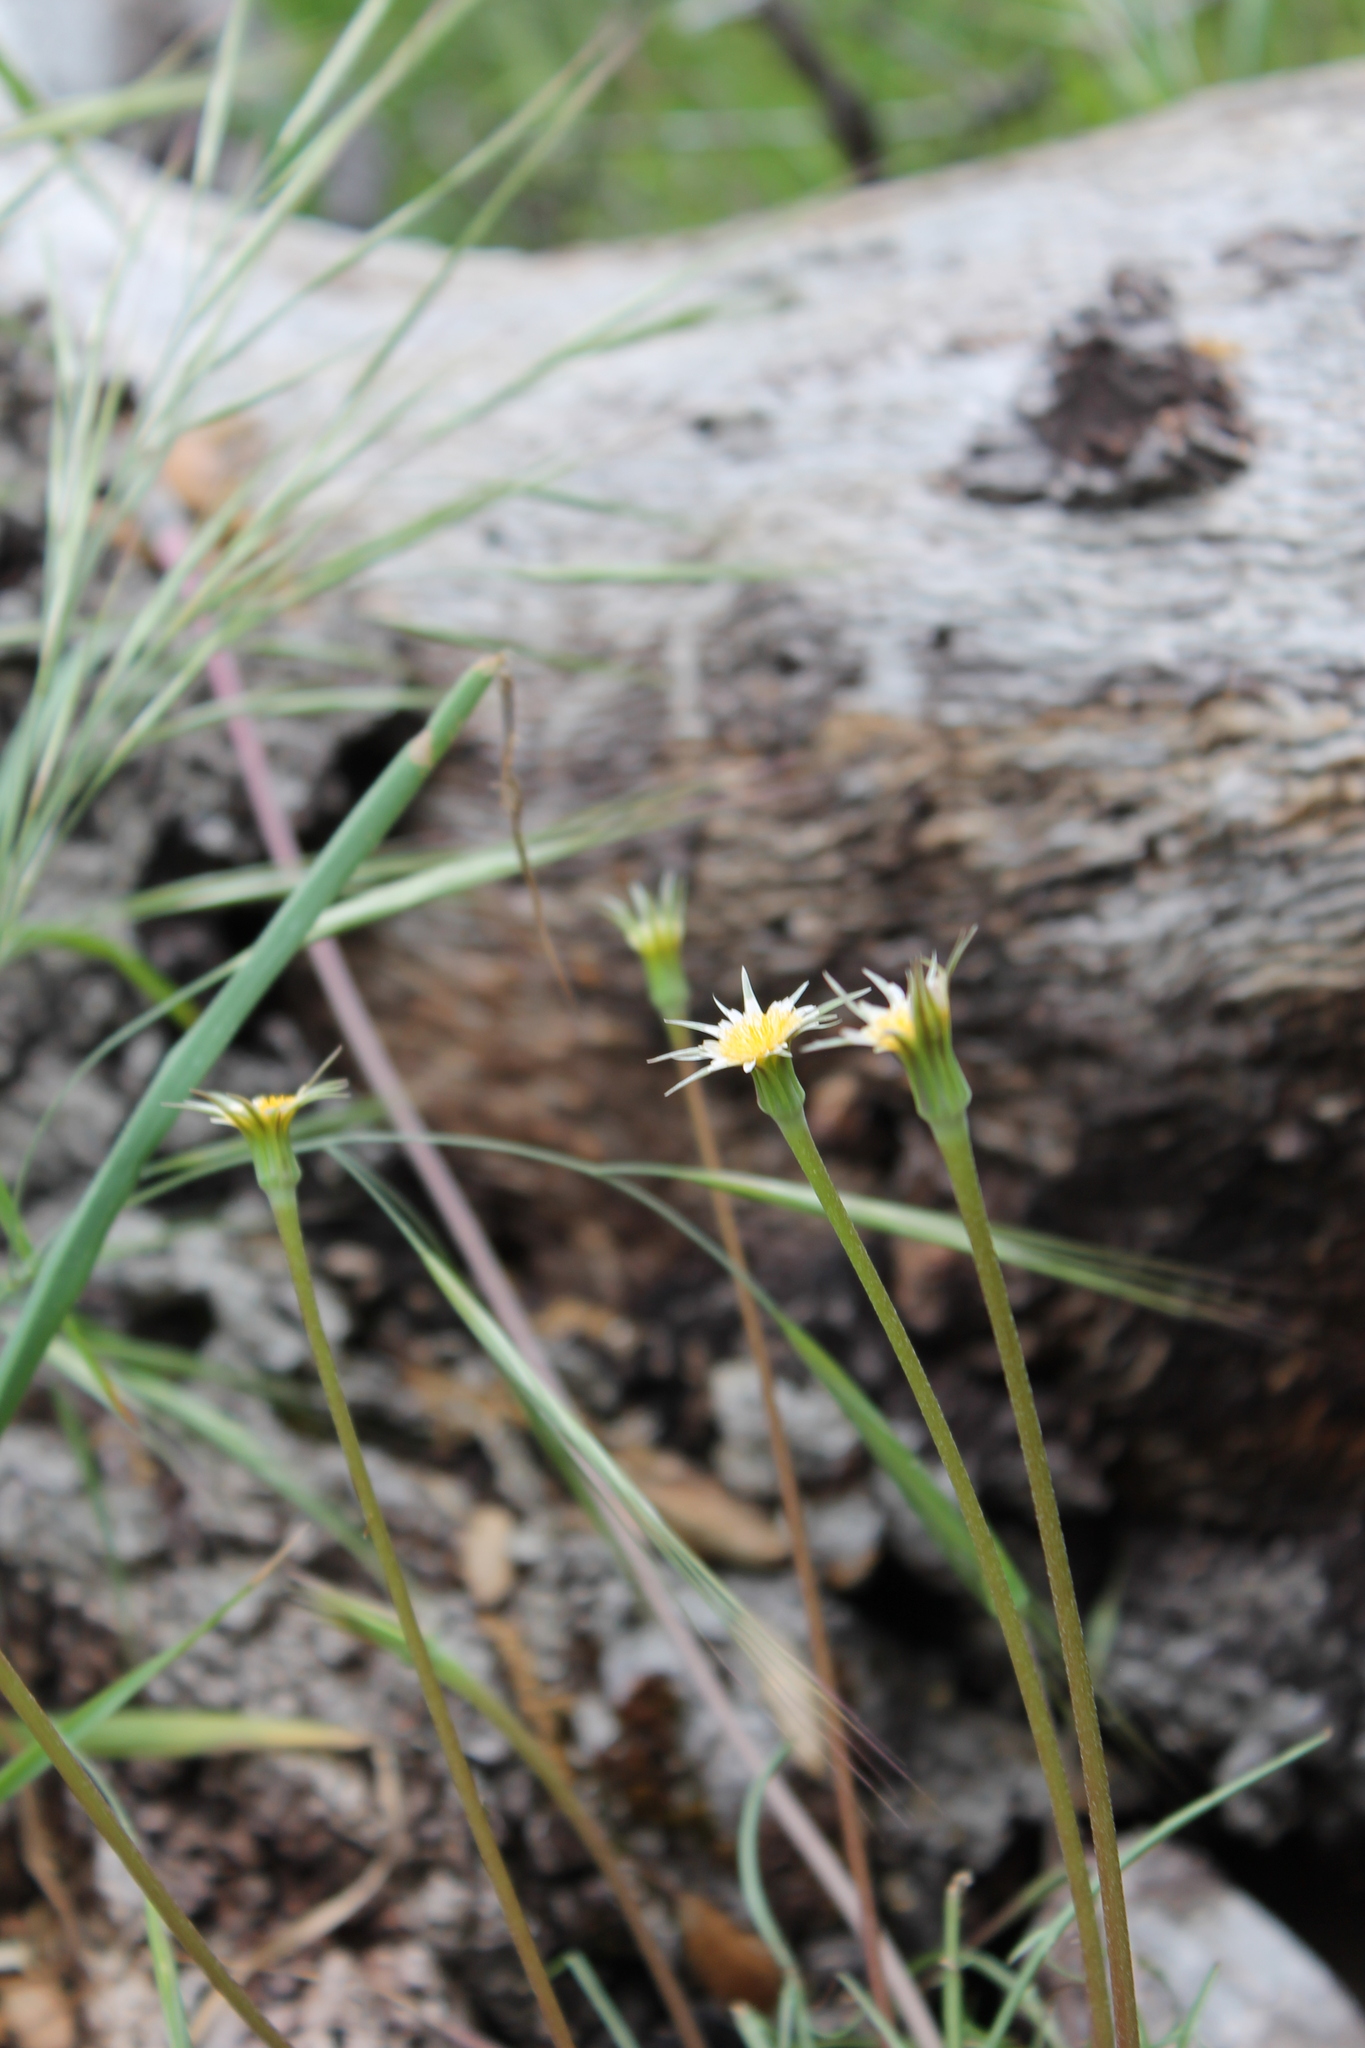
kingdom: Plantae
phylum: Tracheophyta
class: Magnoliopsida
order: Asterales
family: Asteraceae
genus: Microseris
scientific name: Microseris lindleyi
